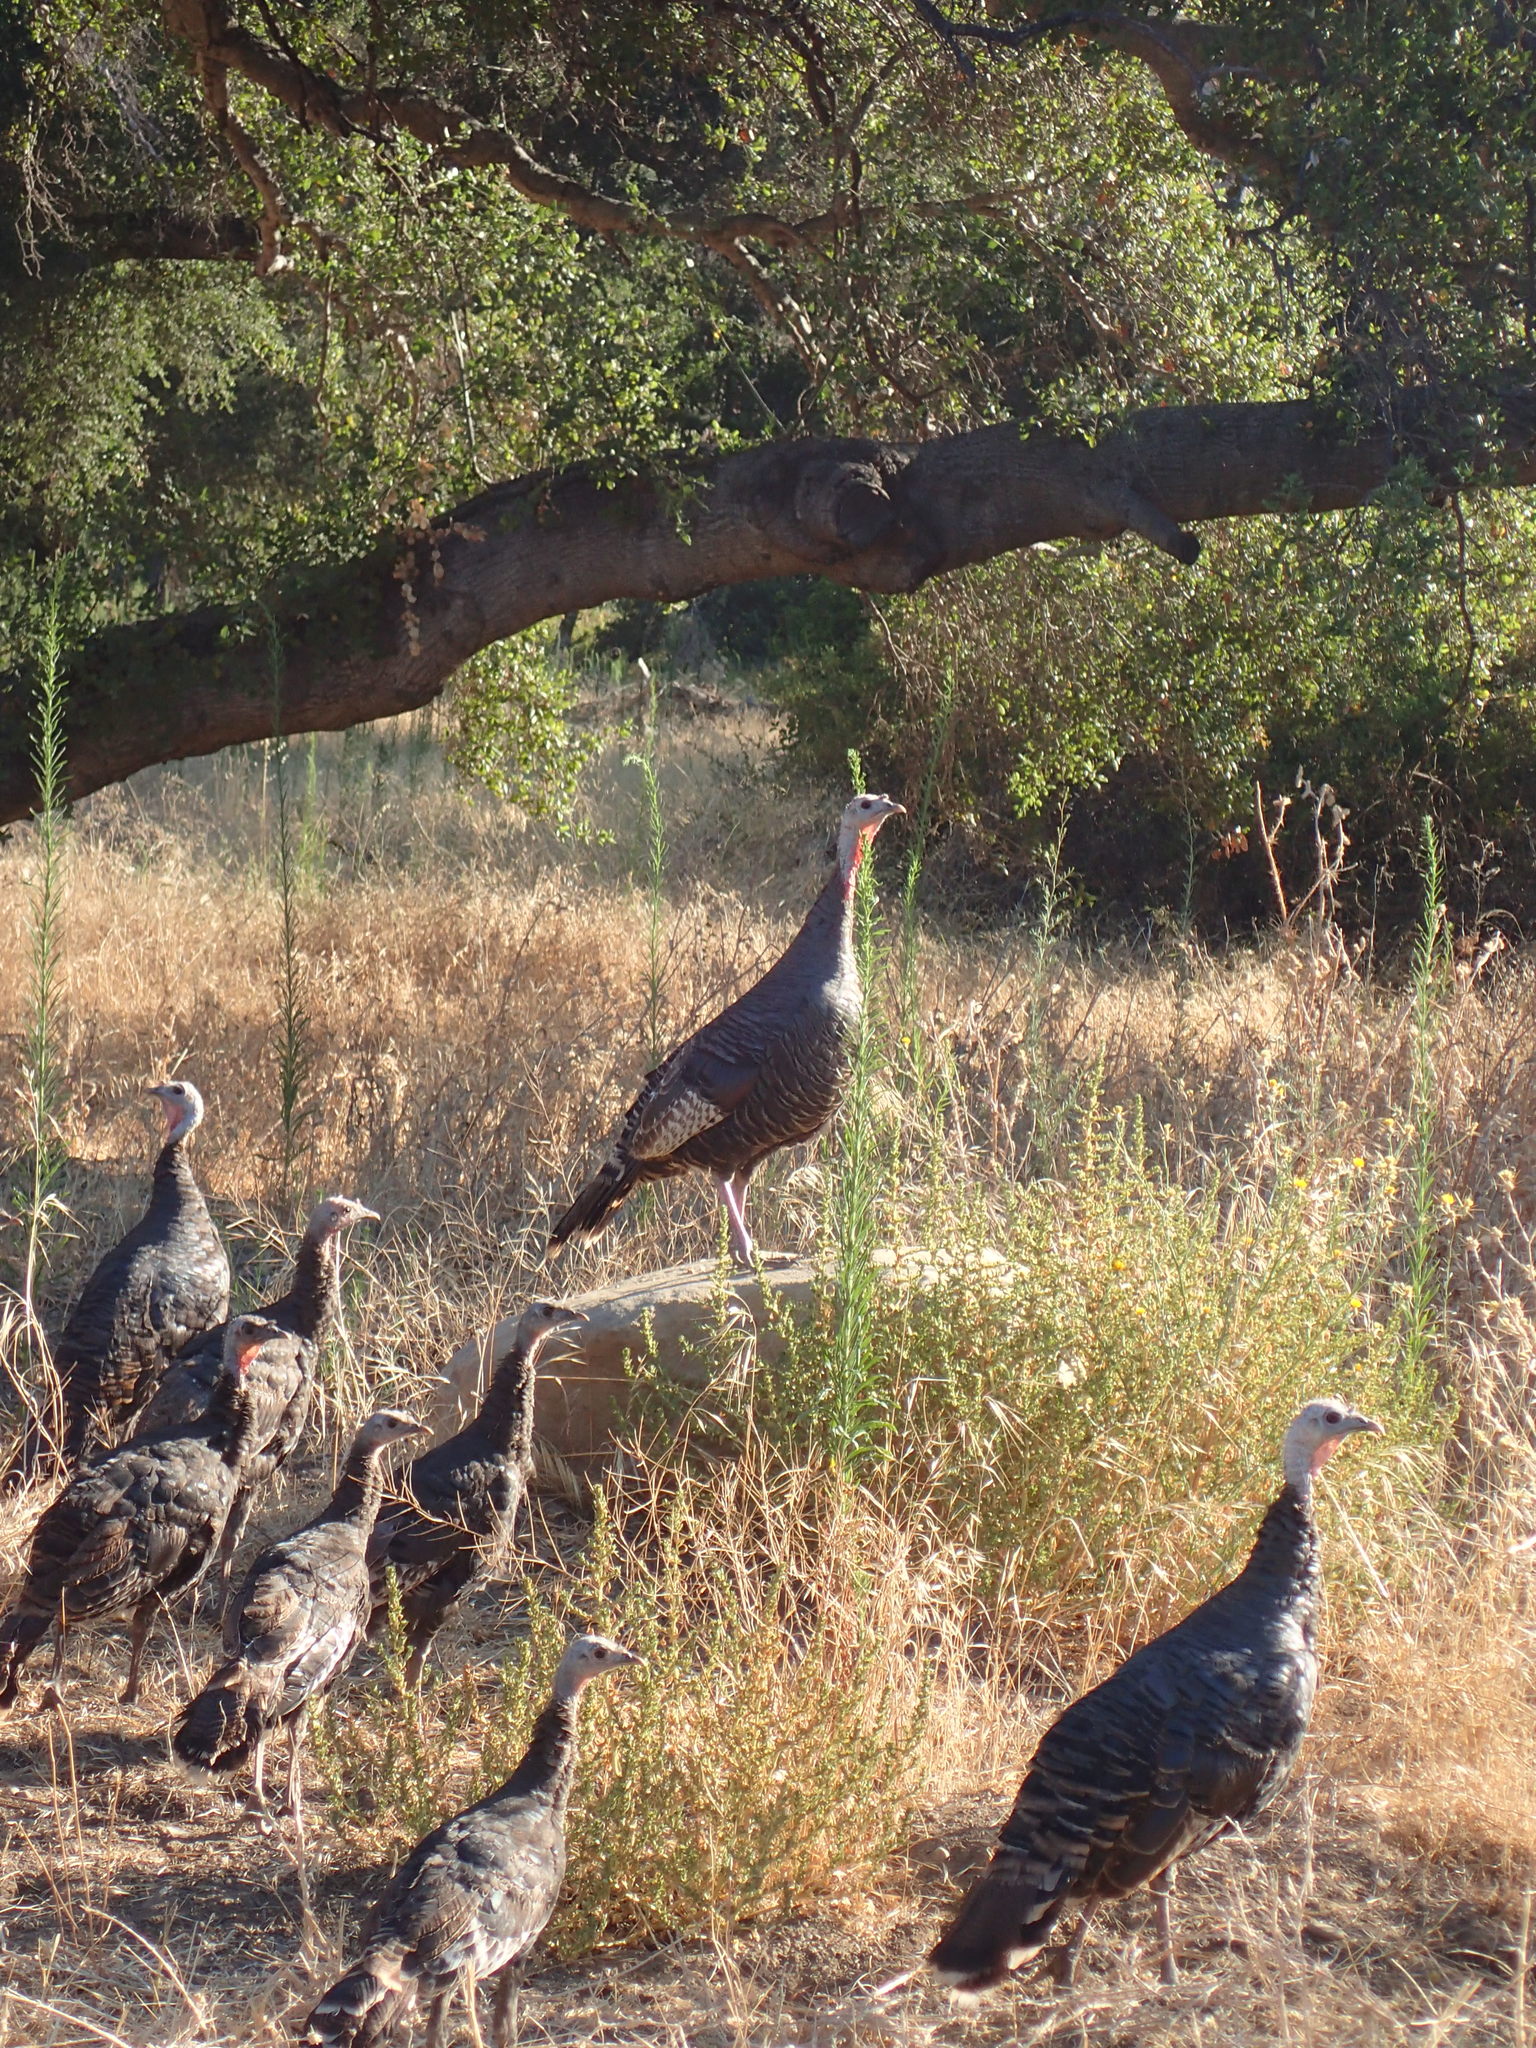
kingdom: Animalia
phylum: Chordata
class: Aves
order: Galliformes
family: Phasianidae
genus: Meleagris
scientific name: Meleagris gallopavo
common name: Wild turkey
